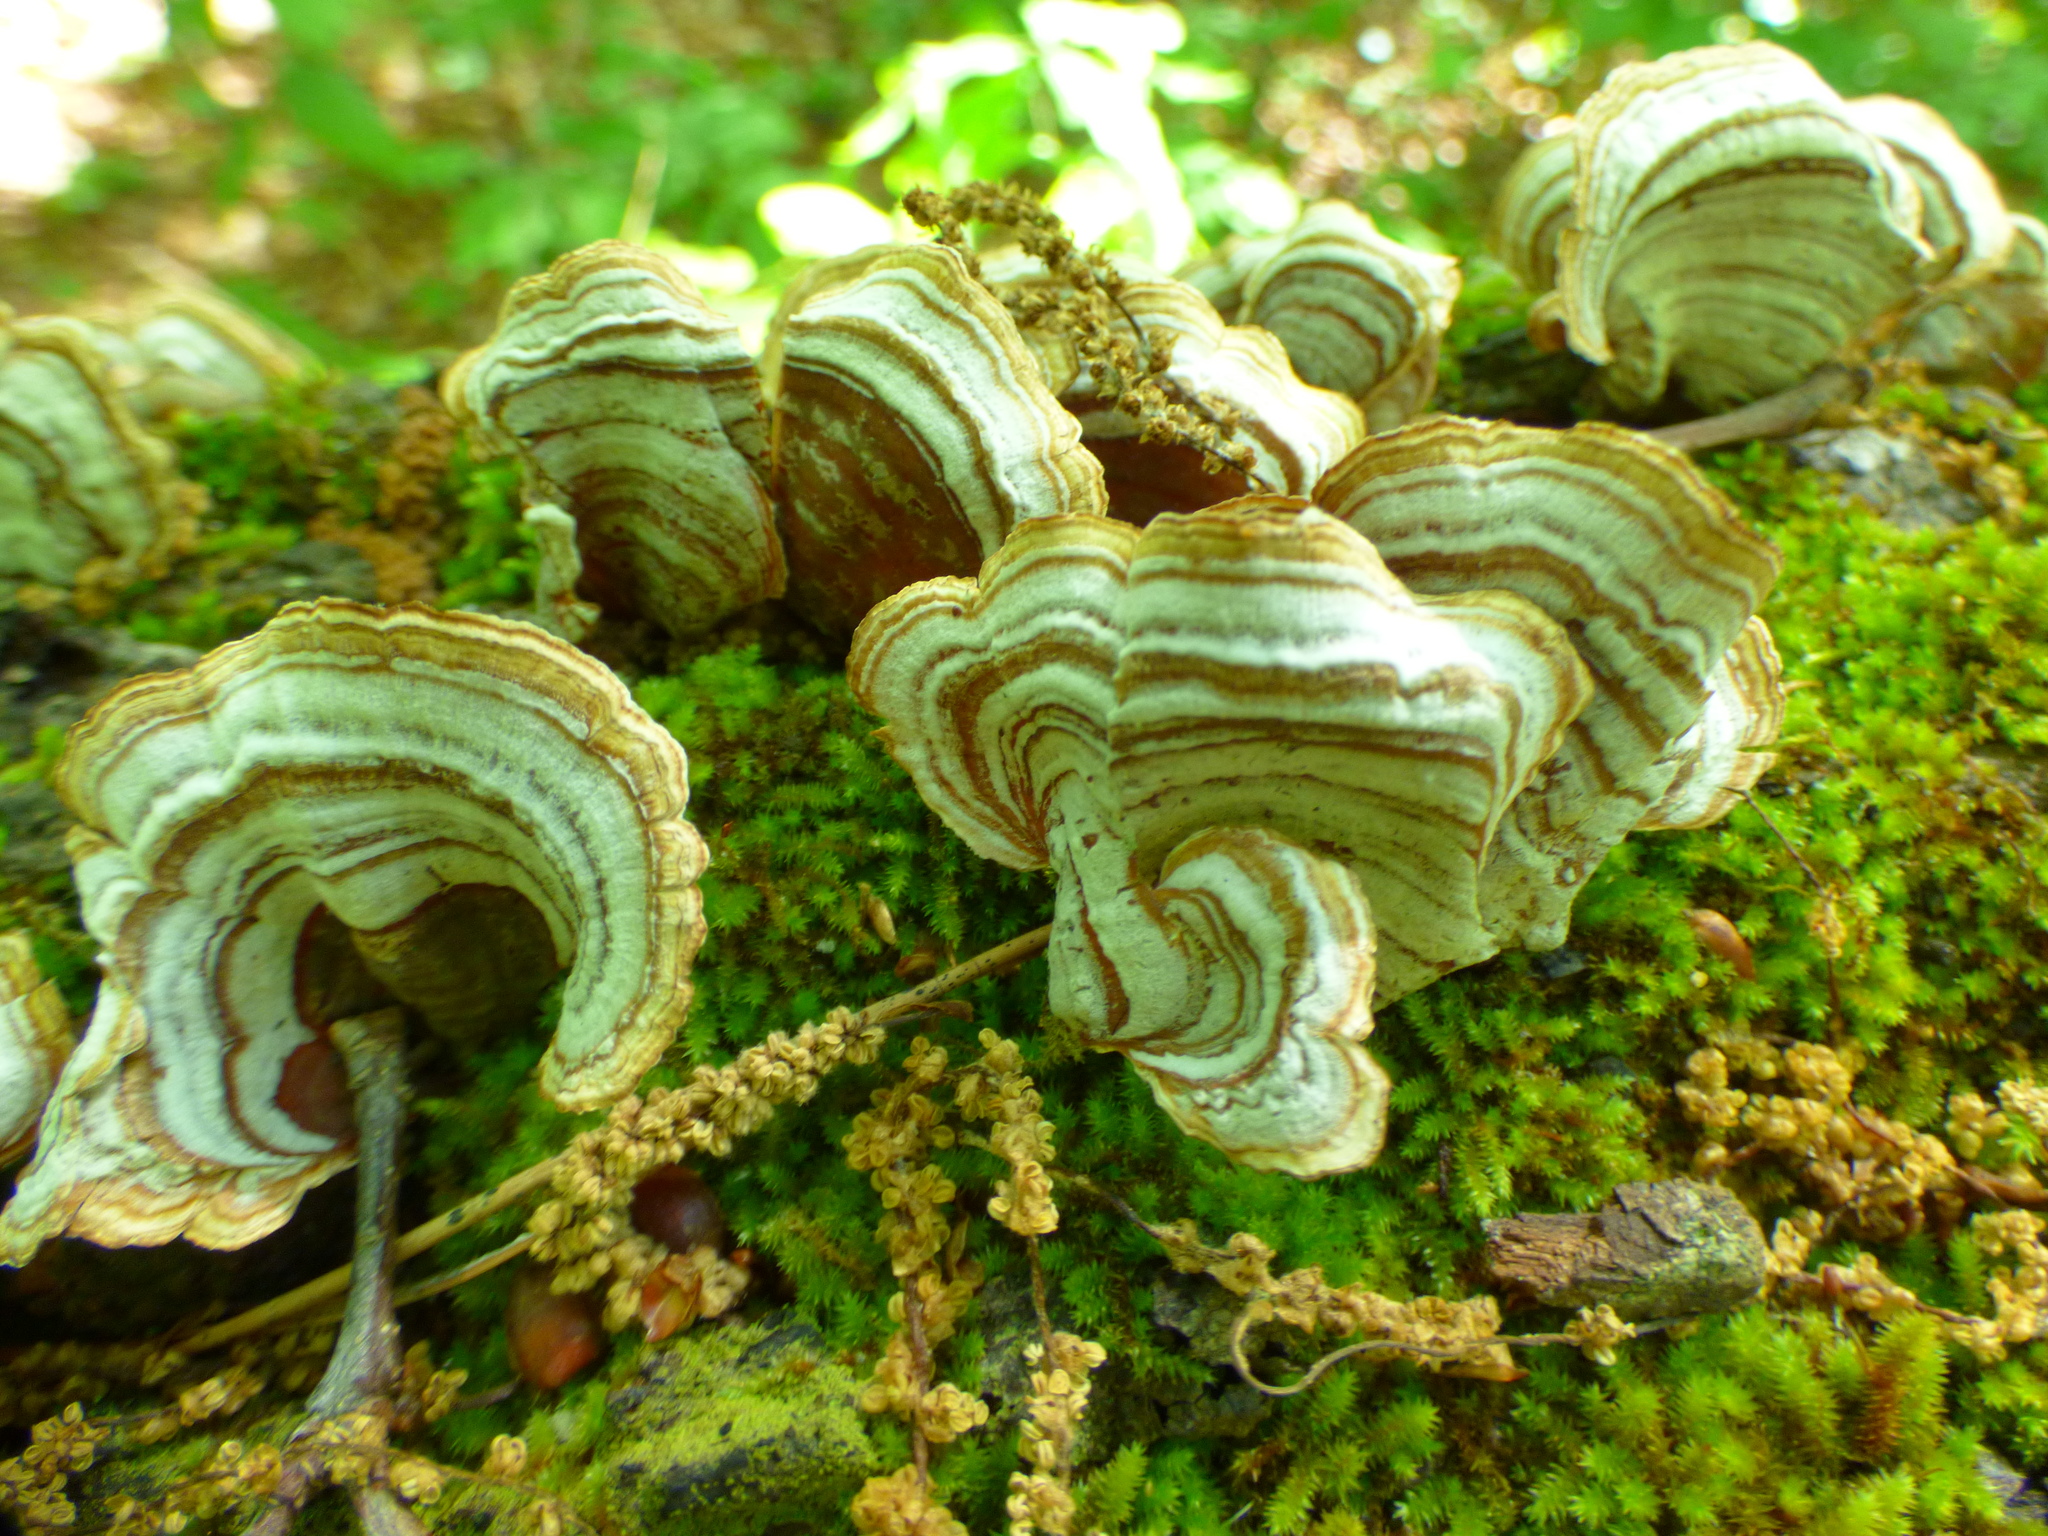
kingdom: Fungi
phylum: Basidiomycota
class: Agaricomycetes
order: Russulales
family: Stereaceae
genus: Stereum
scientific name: Stereum ostrea
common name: False turkeytail
